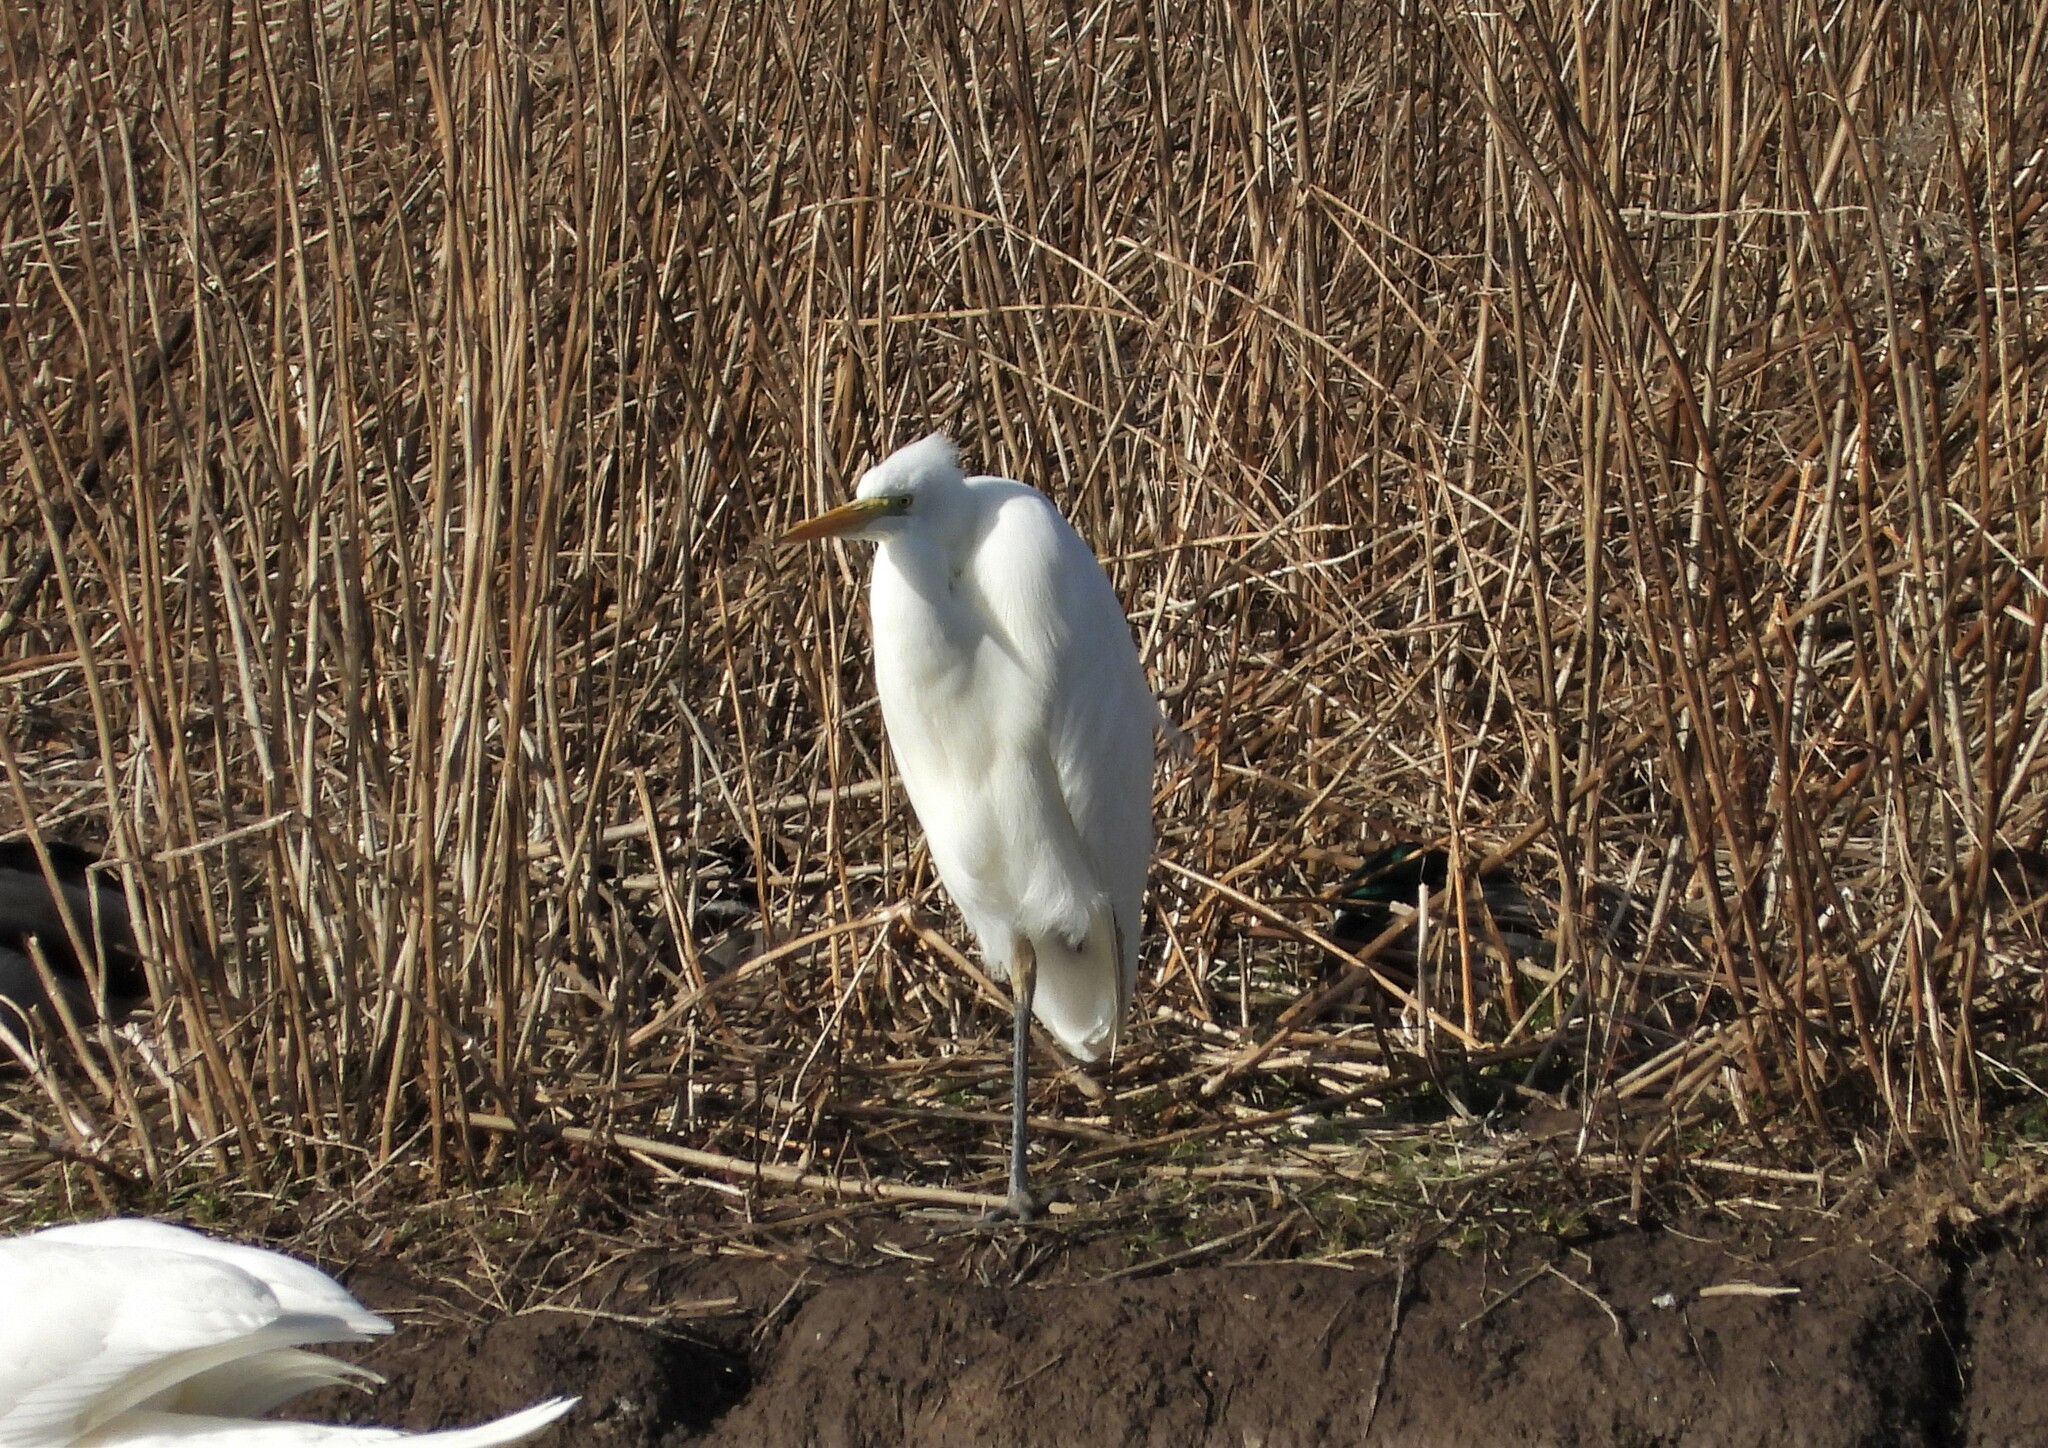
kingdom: Animalia
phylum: Chordata
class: Aves
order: Pelecaniformes
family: Ardeidae
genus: Ardea
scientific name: Ardea alba
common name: Great egret
